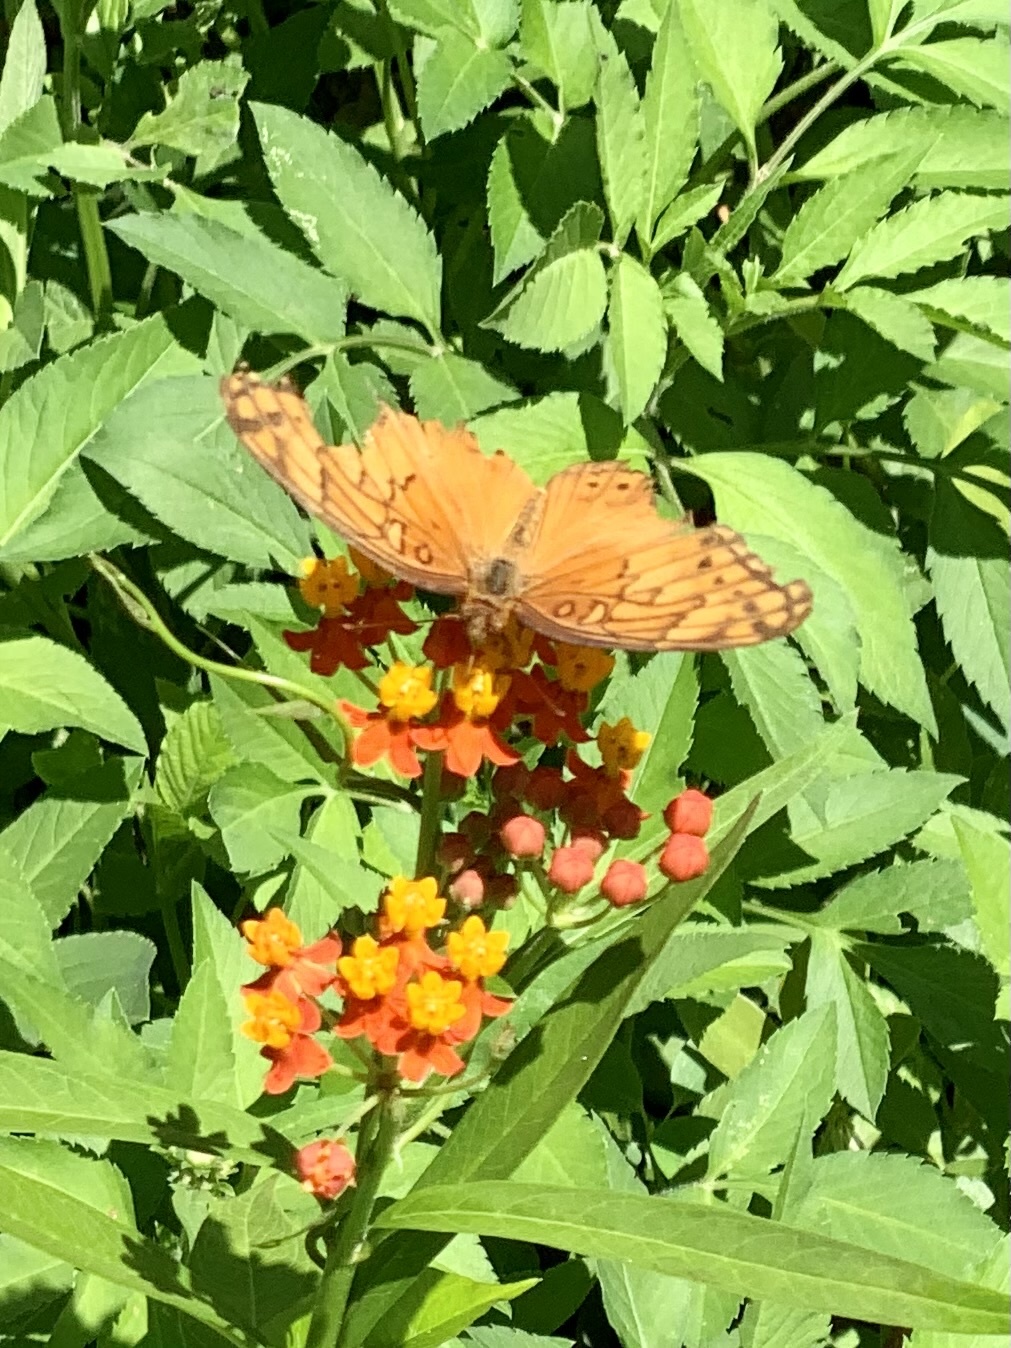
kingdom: Animalia
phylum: Arthropoda
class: Insecta
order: Lepidoptera
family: Nymphalidae
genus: Euptoieta
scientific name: Euptoieta hegesia
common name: Mexican fritillary
